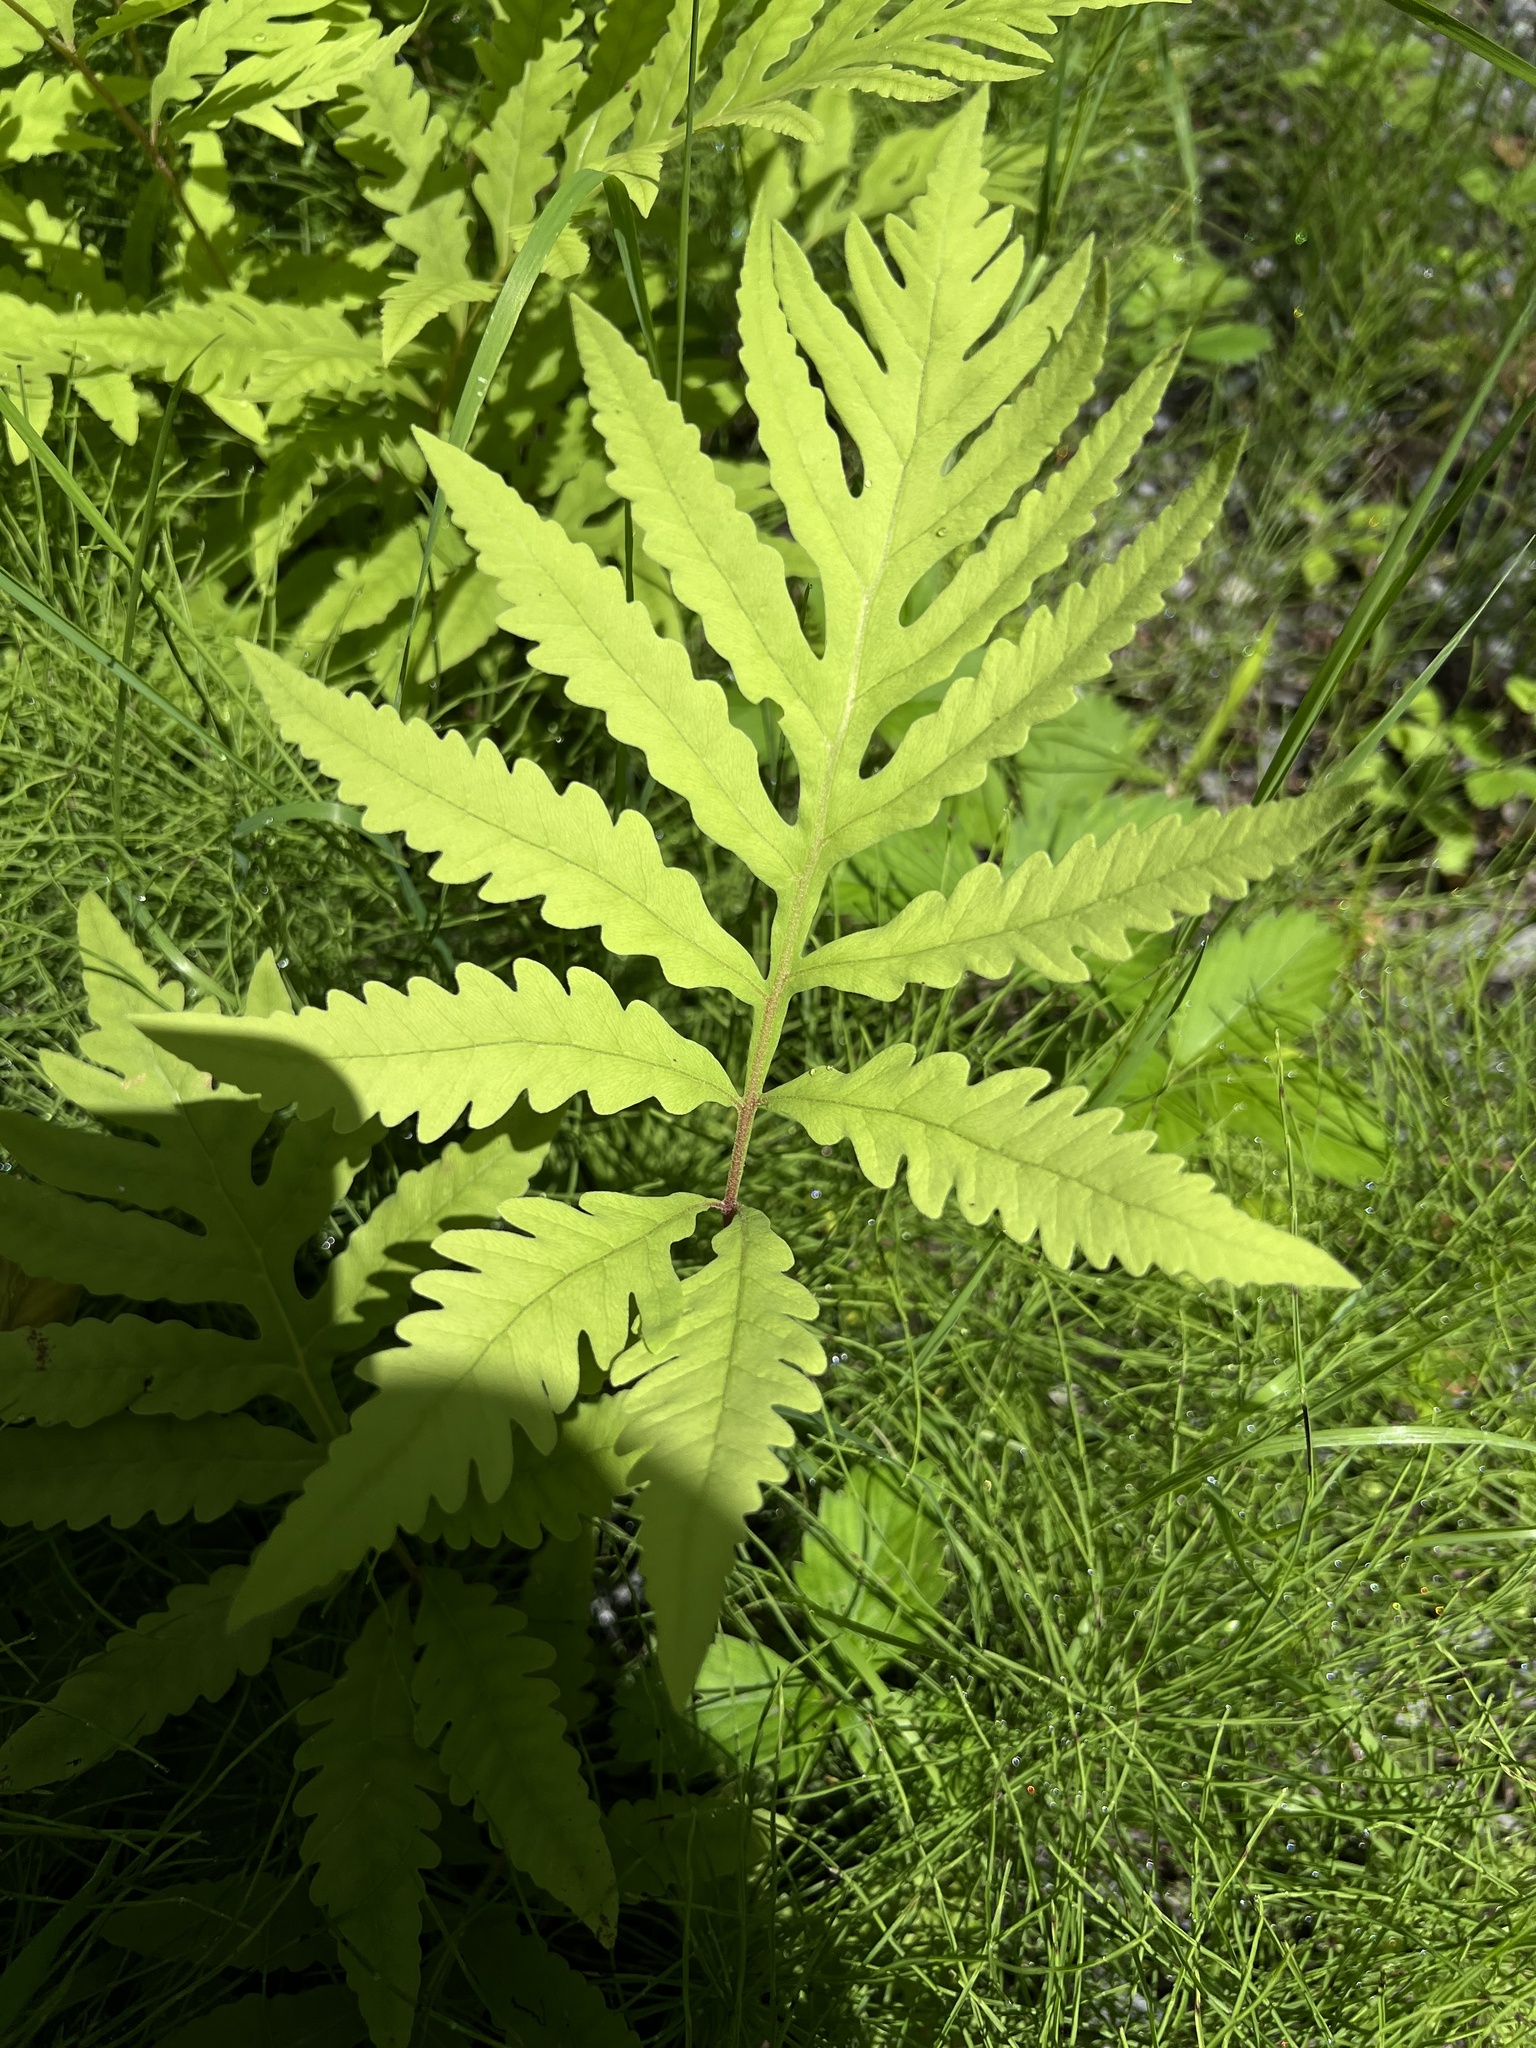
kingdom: Plantae
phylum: Tracheophyta
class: Polypodiopsida
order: Polypodiales
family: Onocleaceae
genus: Onoclea
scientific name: Onoclea sensibilis
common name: Sensitive fern
